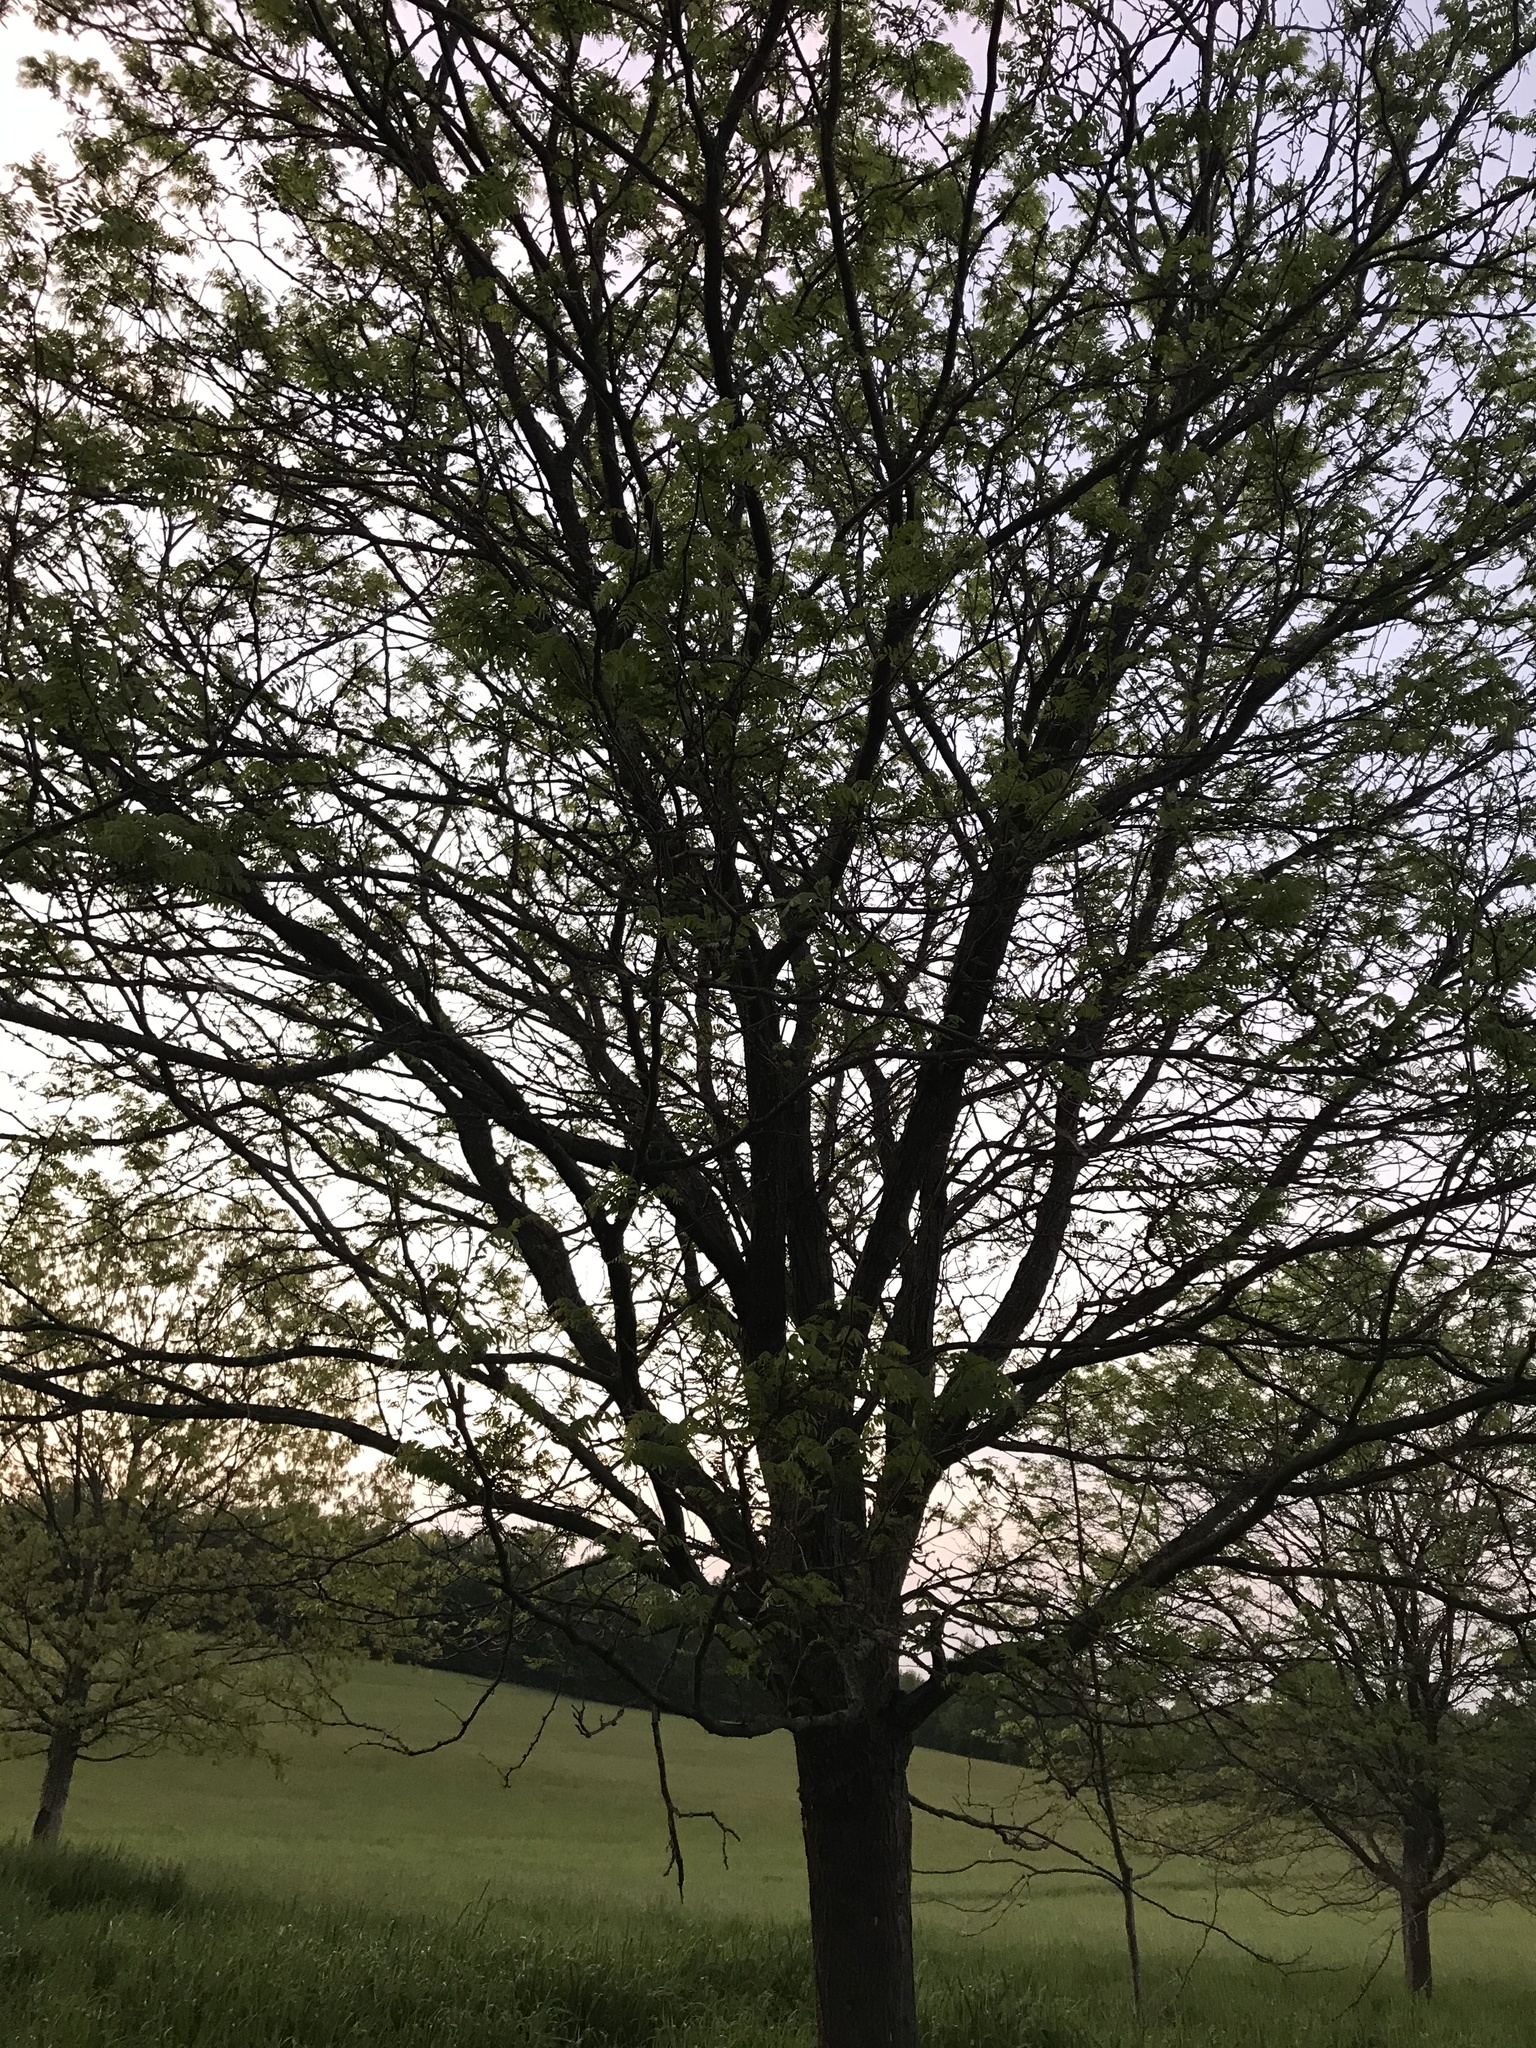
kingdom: Plantae
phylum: Tracheophyta
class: Magnoliopsida
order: Fabales
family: Fabaceae
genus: Gleditsia
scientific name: Gleditsia triacanthos
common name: Common honeylocust
